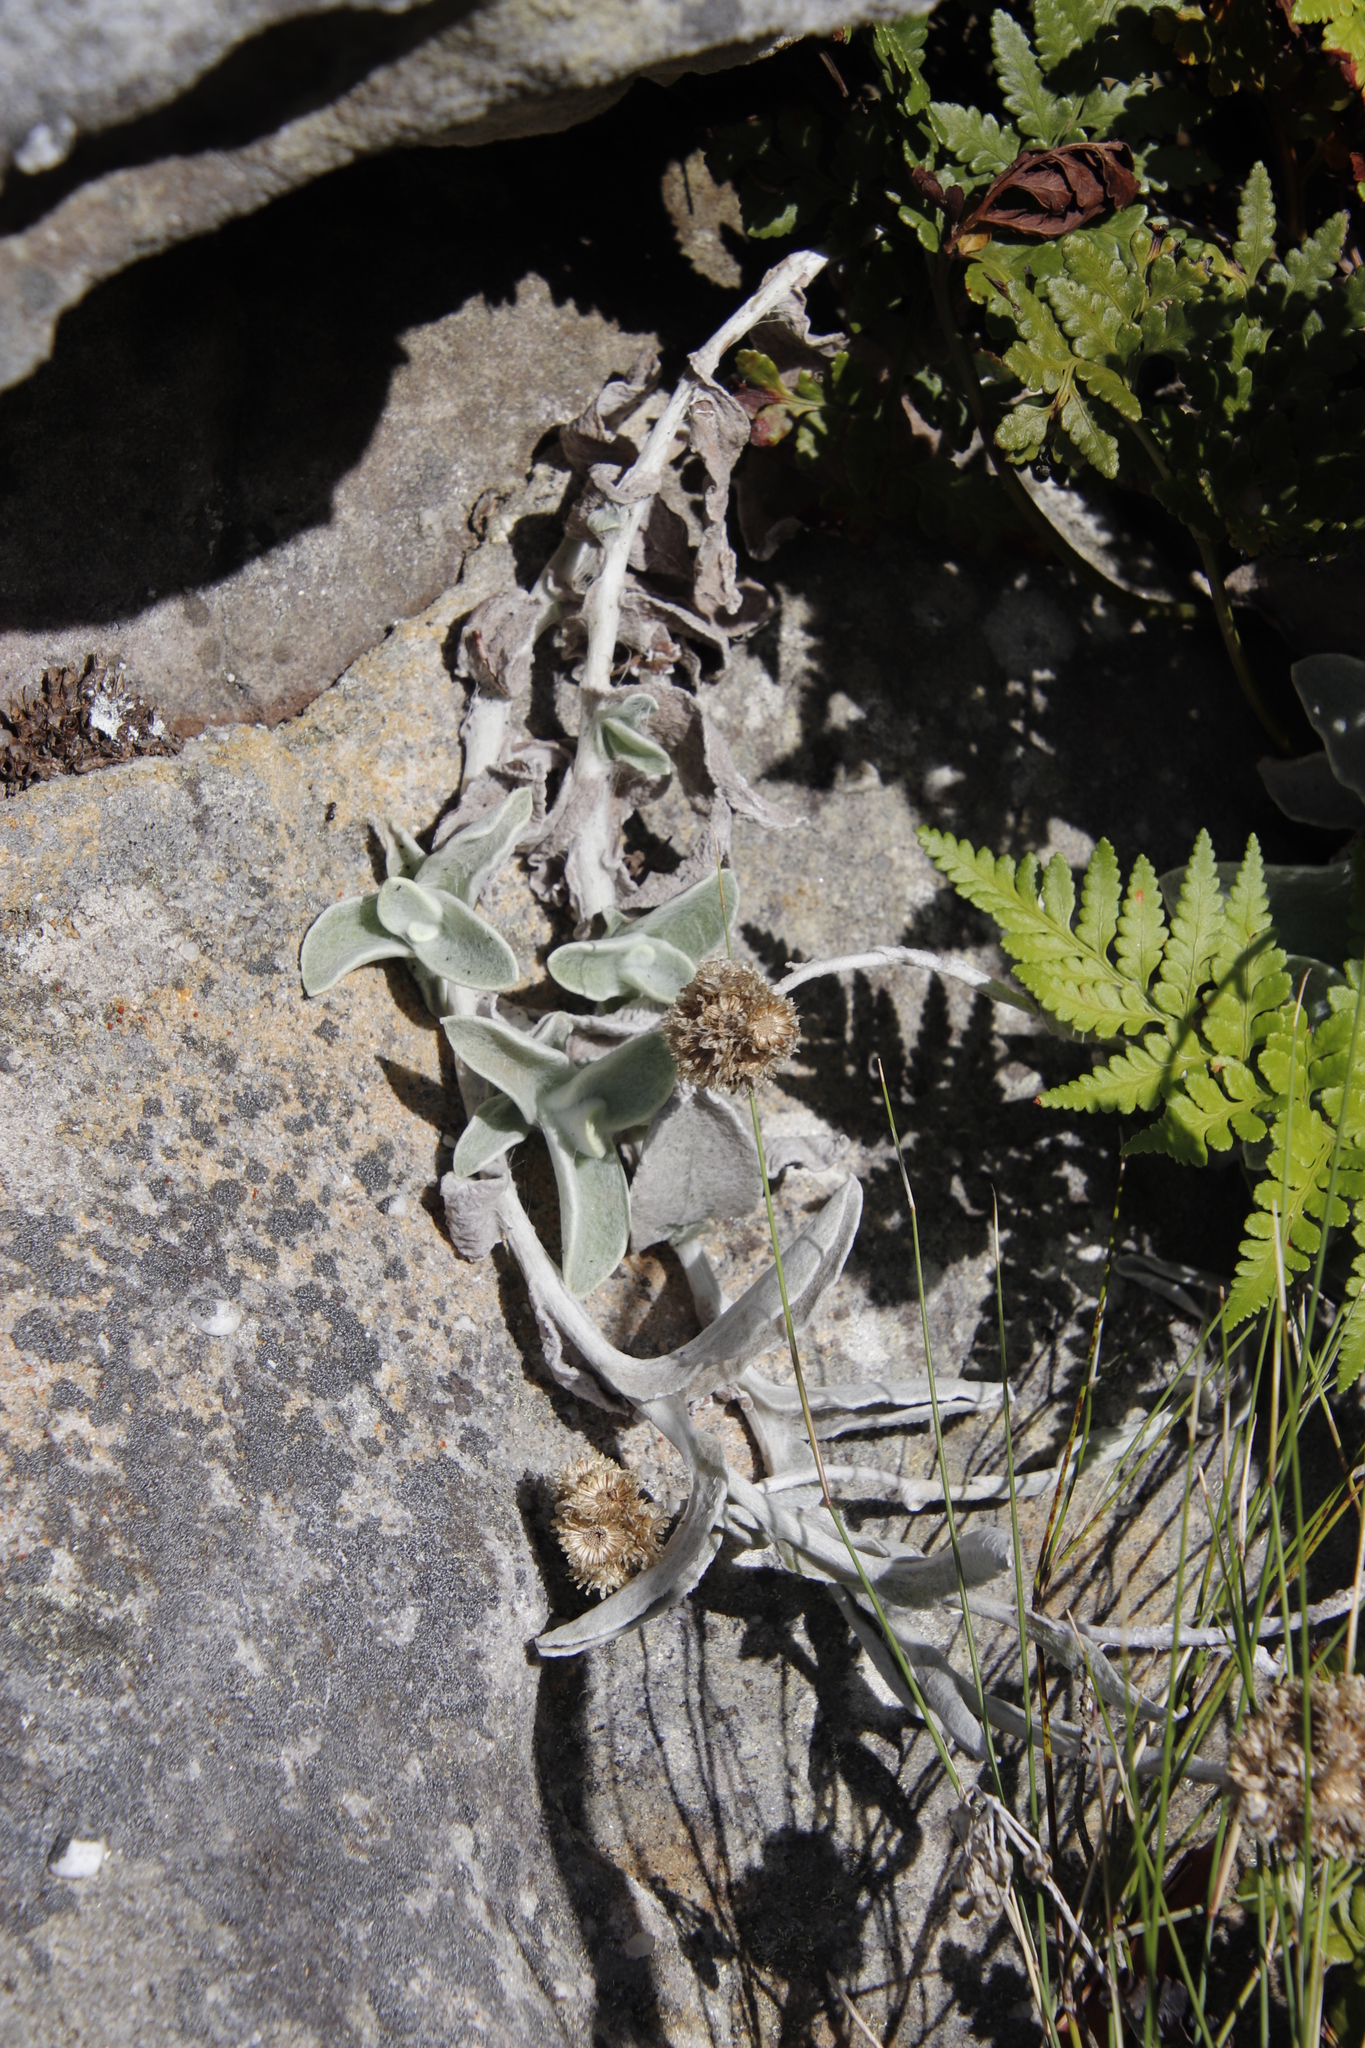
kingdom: Plantae
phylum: Tracheophyta
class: Magnoliopsida
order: Asterales
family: Asteraceae
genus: Helichrysum
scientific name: Helichrysum grandiflorum
